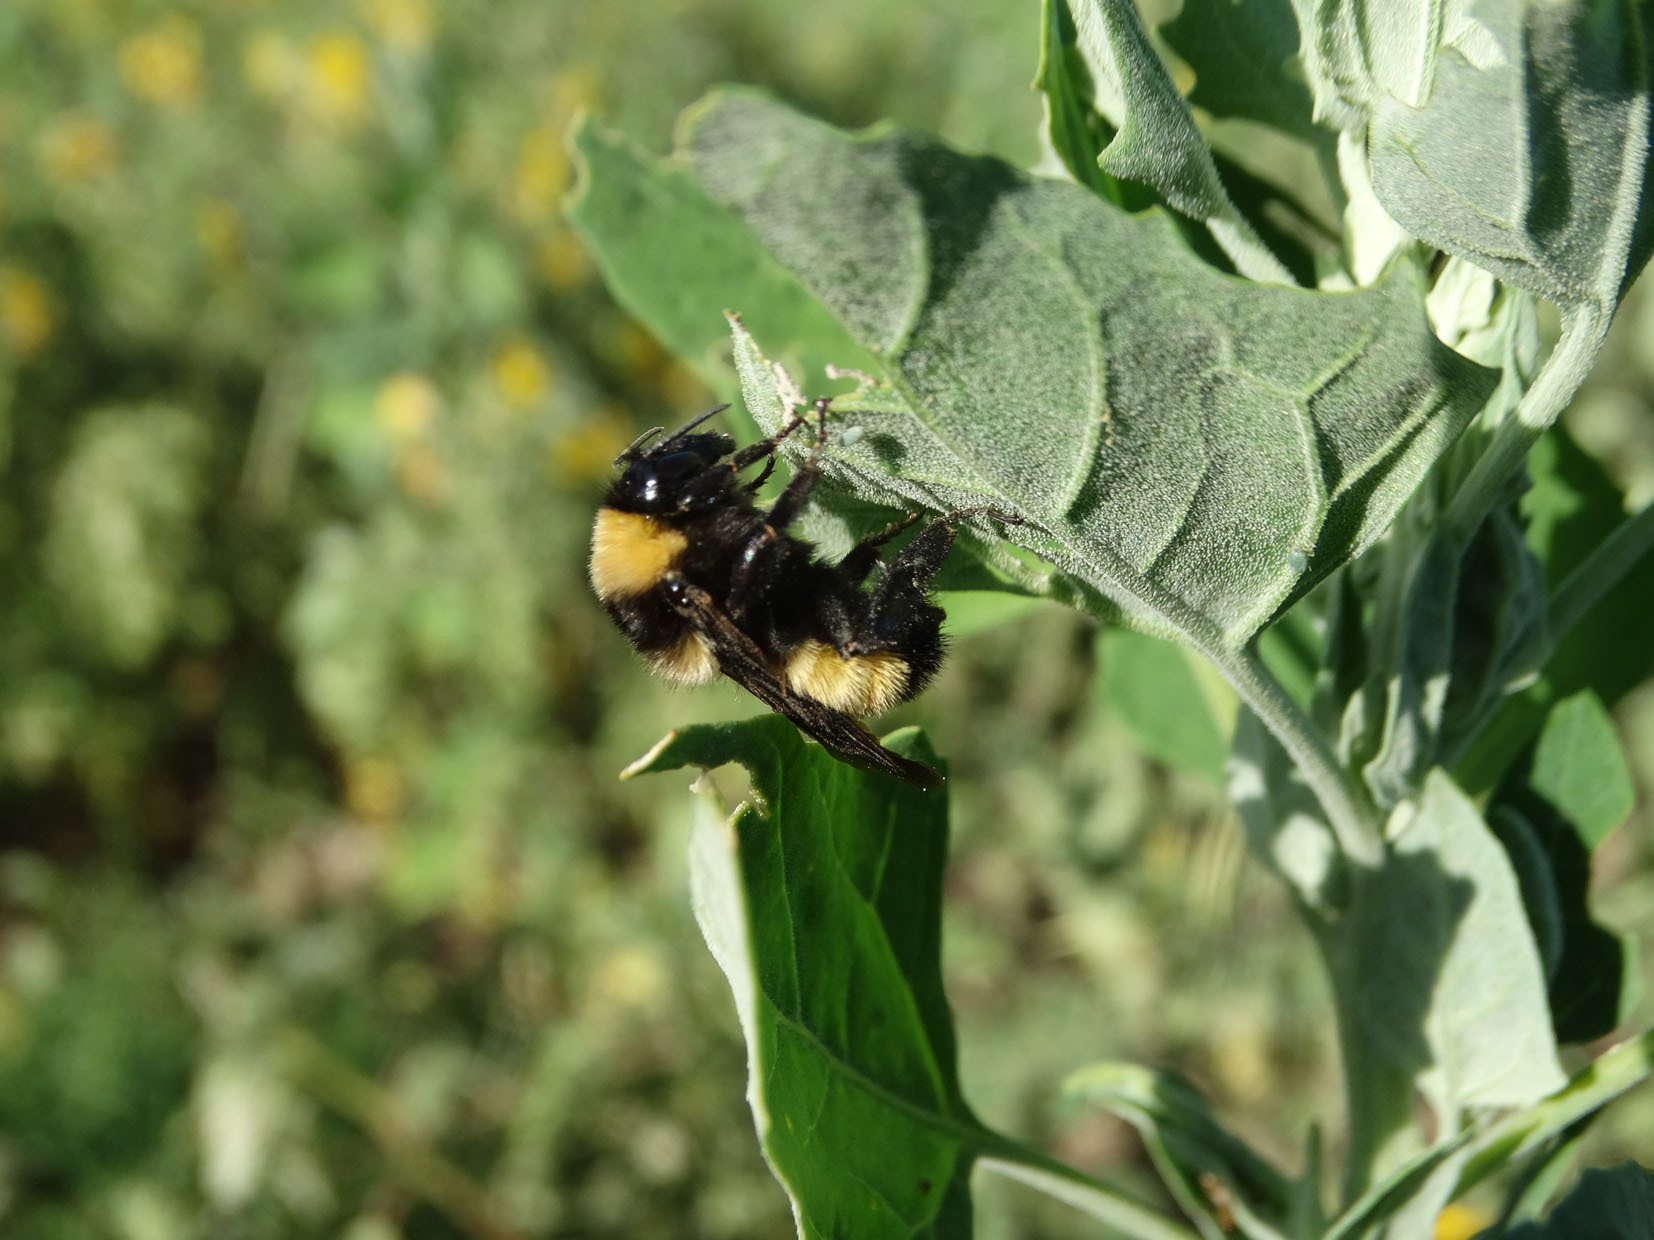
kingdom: Animalia
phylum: Arthropoda
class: Insecta
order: Hymenoptera
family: Apidae
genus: Bombus
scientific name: Bombus sonorus
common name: Sonoran bumble bee
